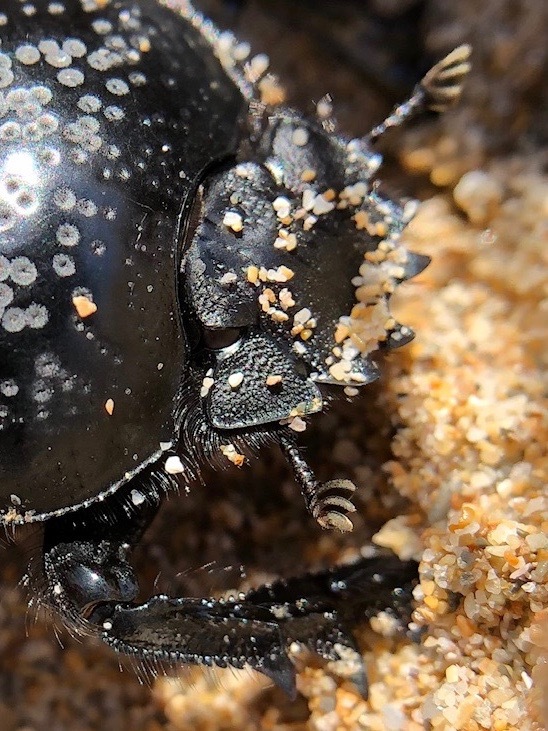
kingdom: Animalia
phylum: Arthropoda
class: Insecta
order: Coleoptera
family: Scarabaeidae
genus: Ateuchetus
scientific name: Ateuchetus laticollis
